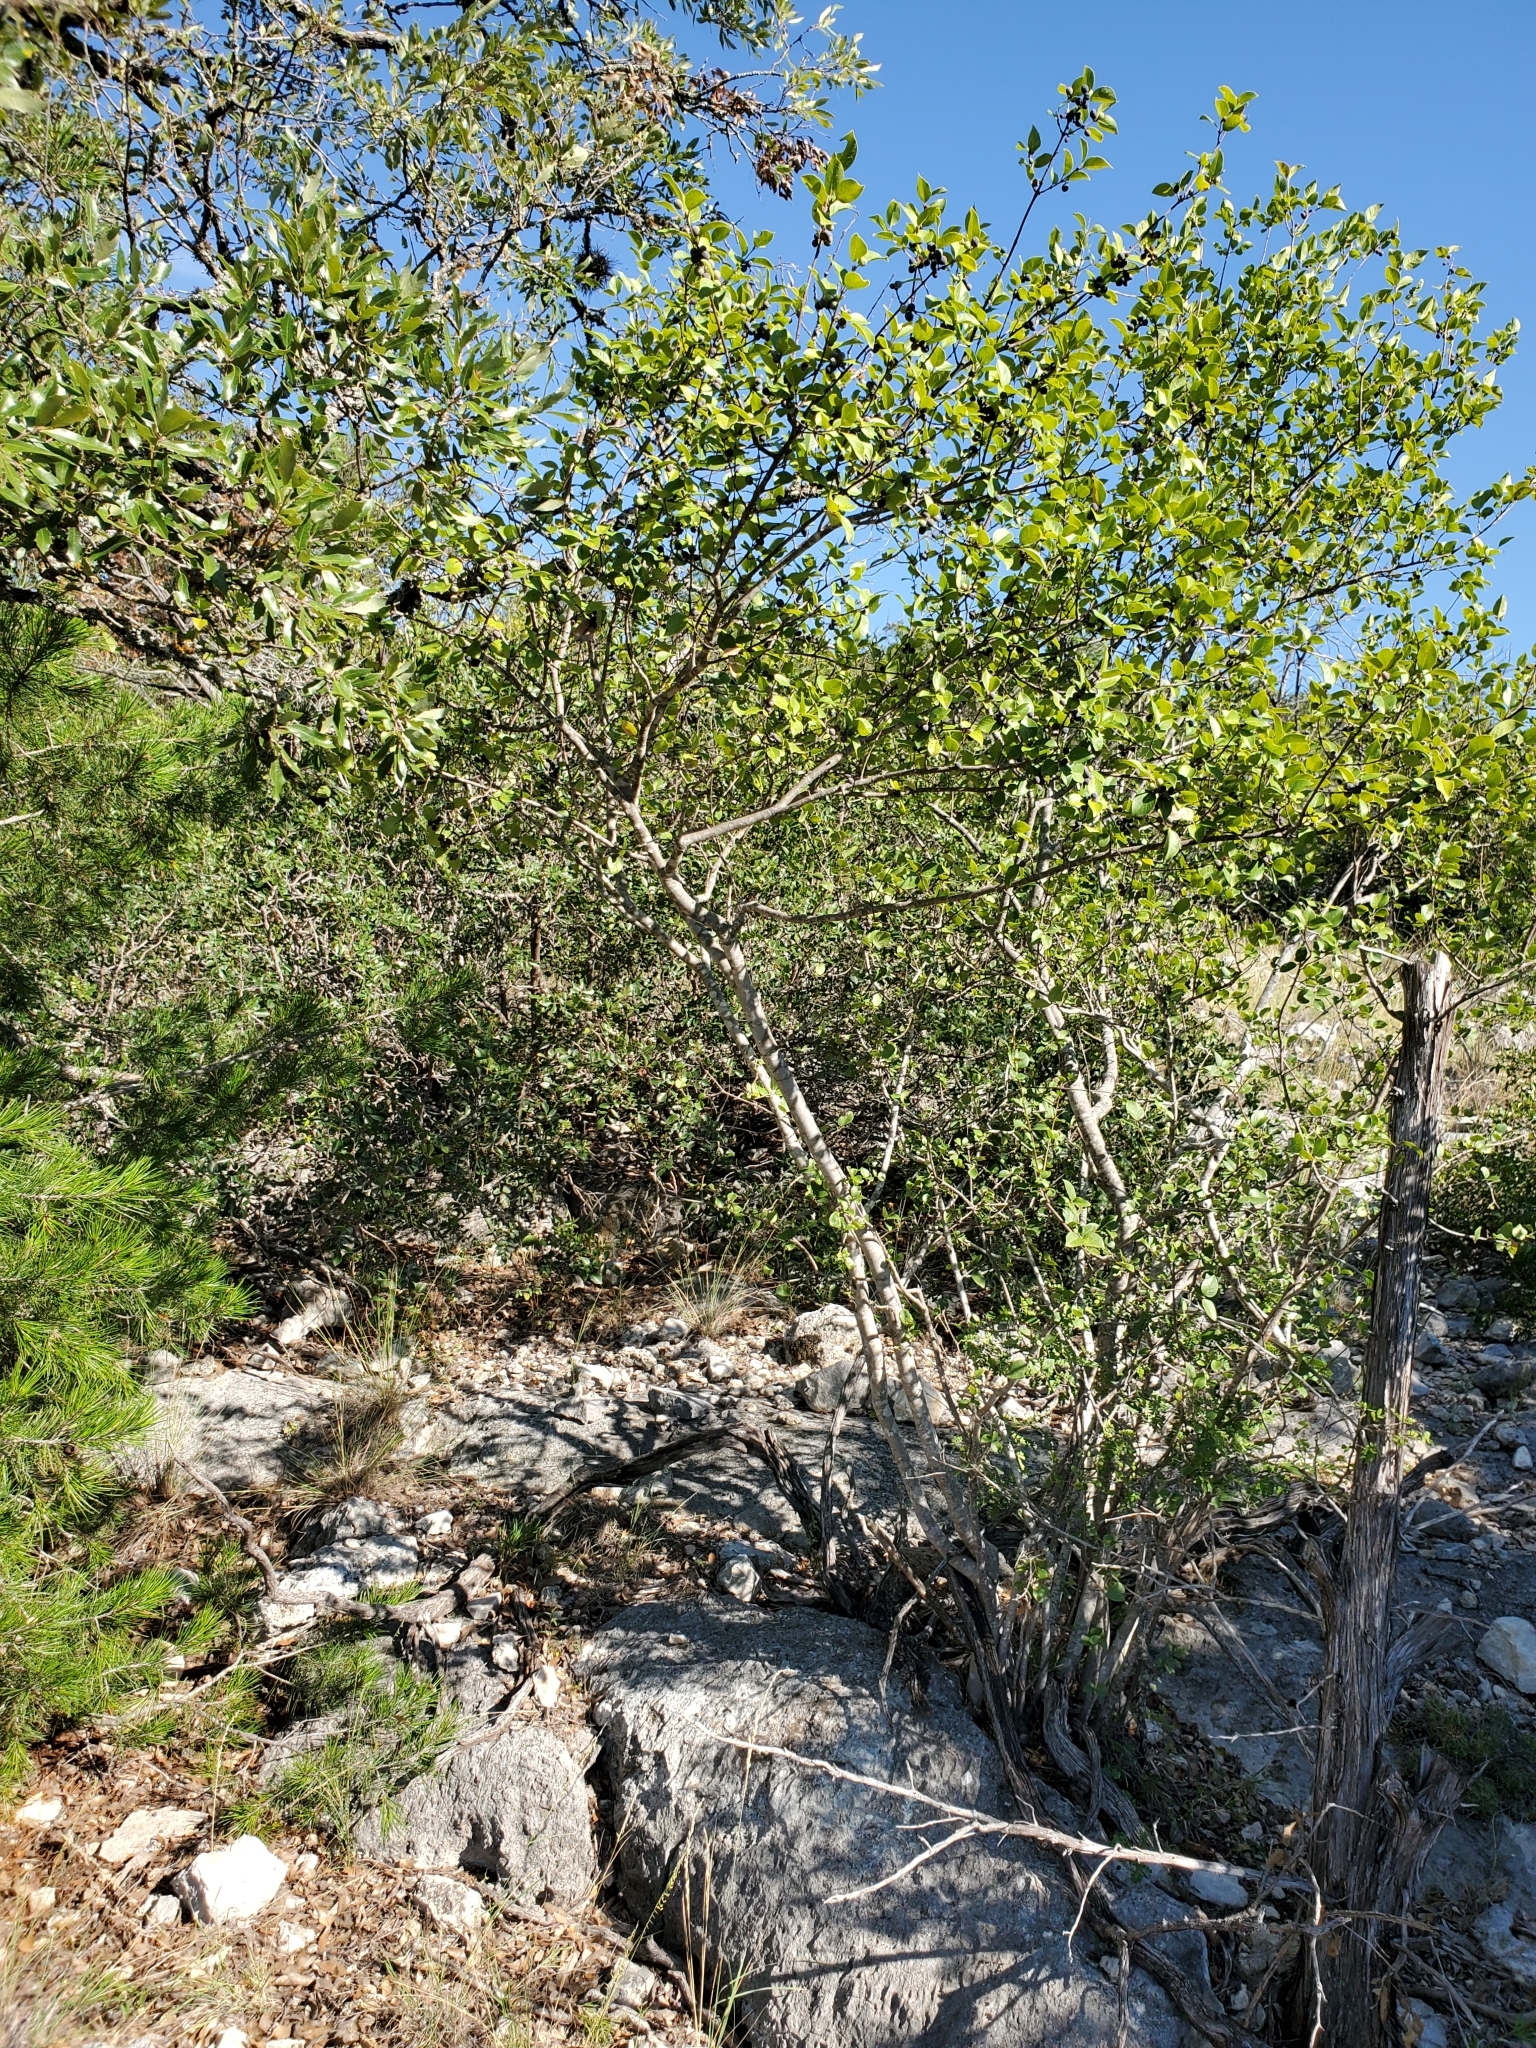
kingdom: Plantae
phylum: Tracheophyta
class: Magnoliopsida
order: Lamiales
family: Oleaceae
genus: Forestiera
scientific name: Forestiera reticulata
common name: Netleaf swamp-privet
